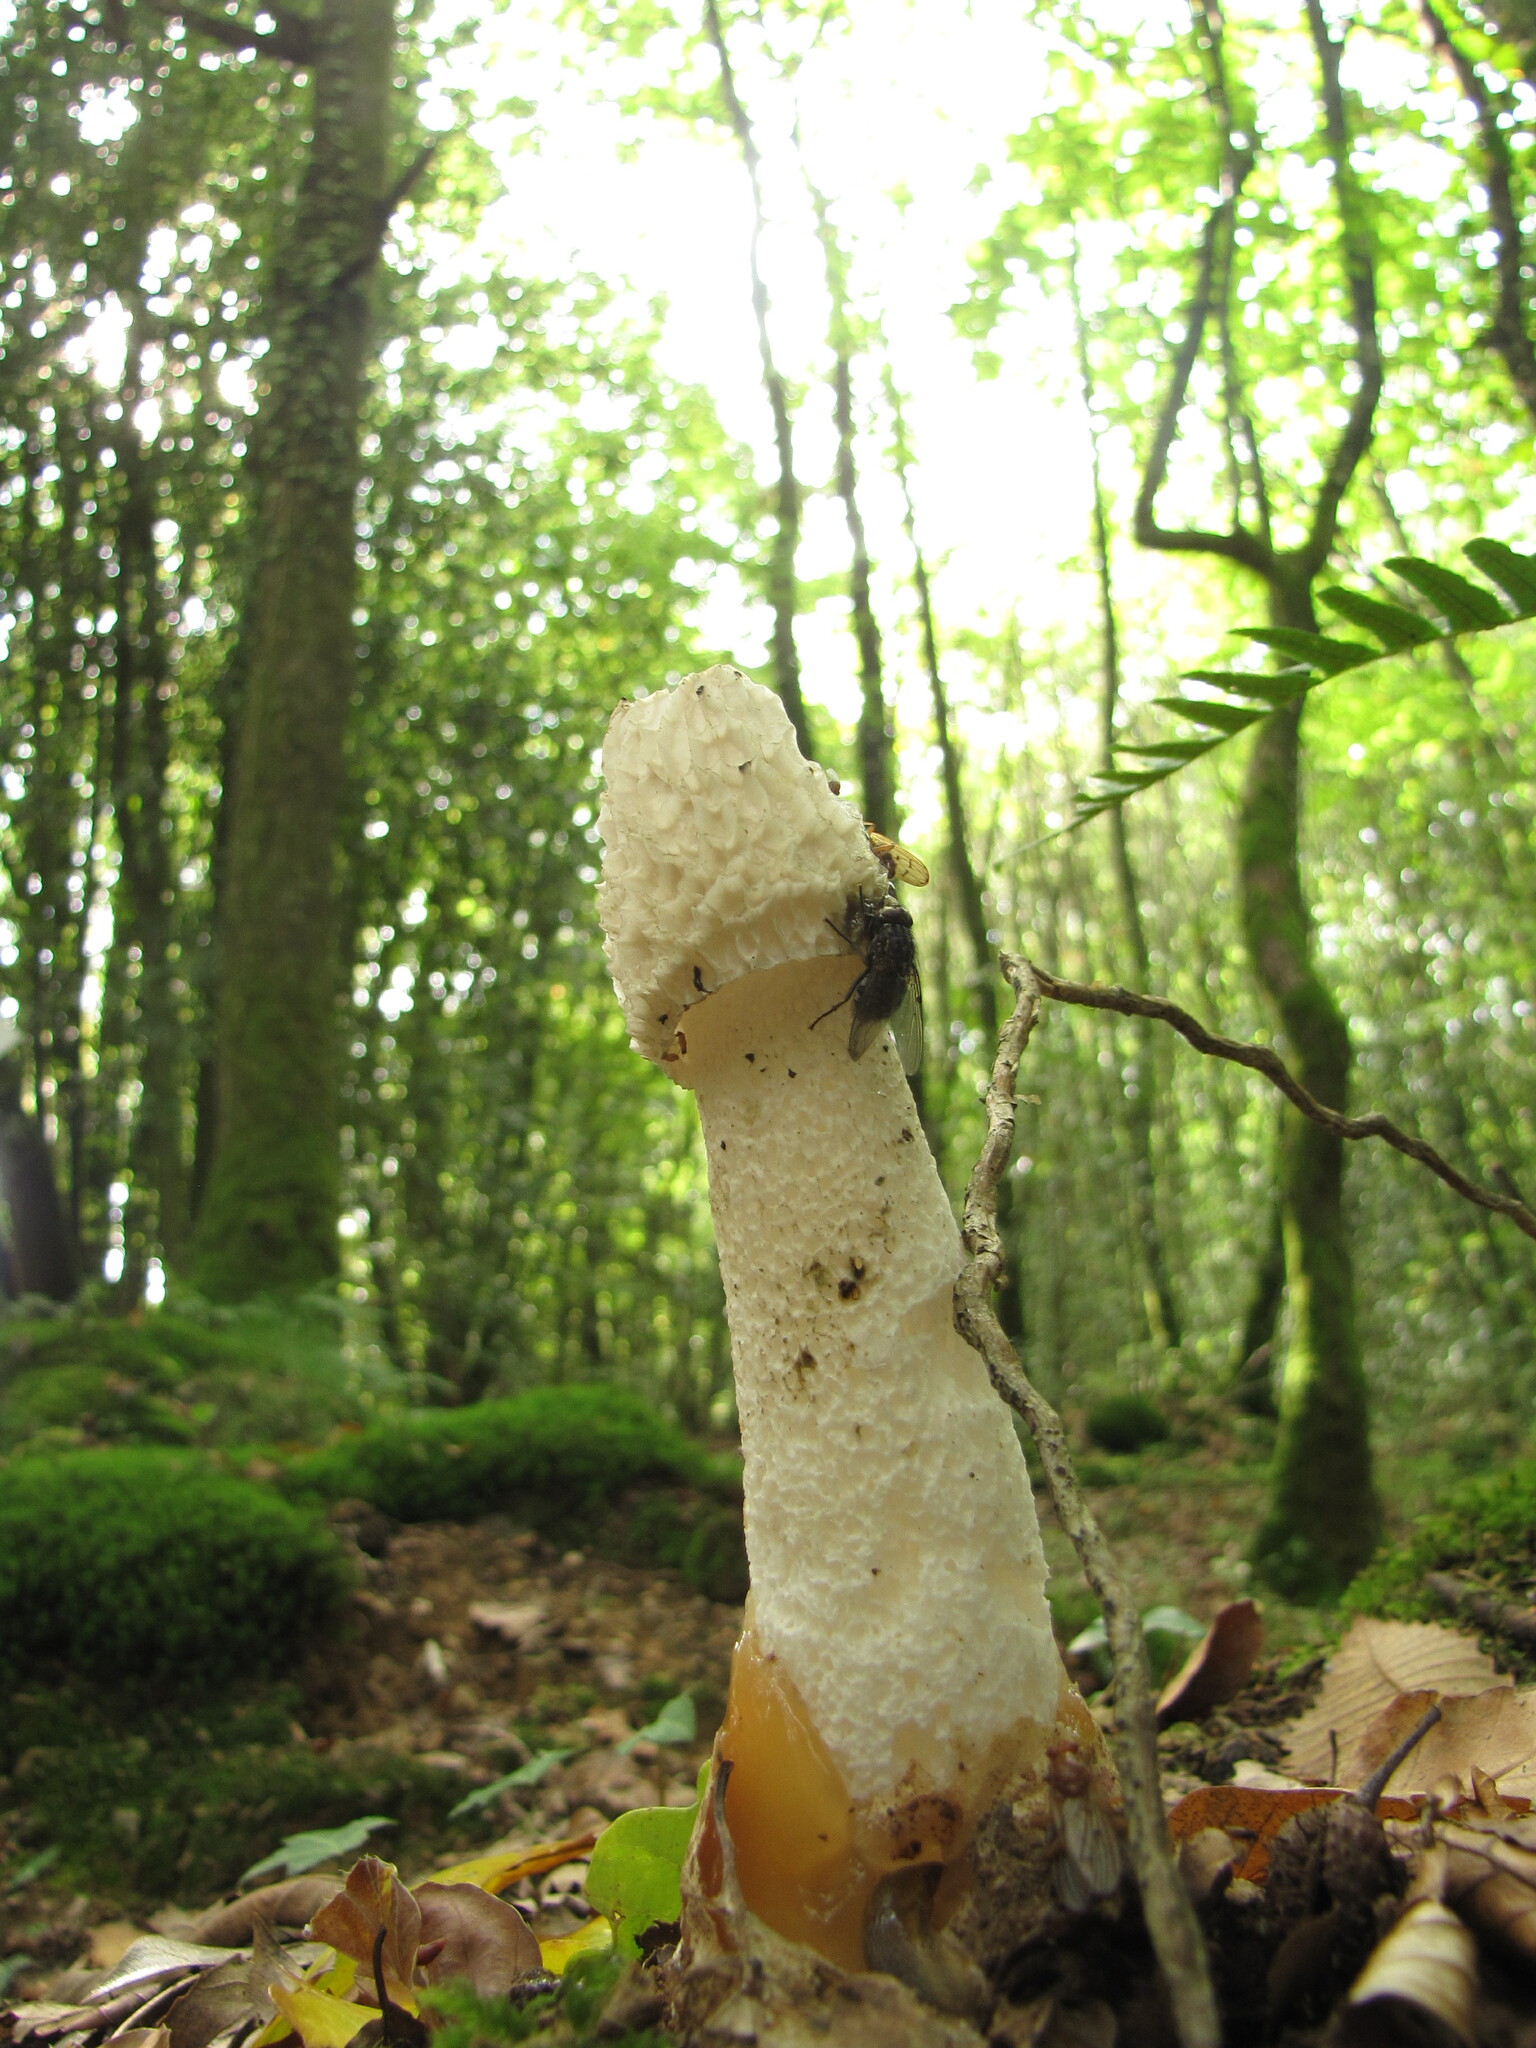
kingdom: Fungi
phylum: Basidiomycota
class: Agaricomycetes
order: Phallales
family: Phallaceae
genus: Phallus
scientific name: Phallus impudicus
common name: Common stinkhorn
